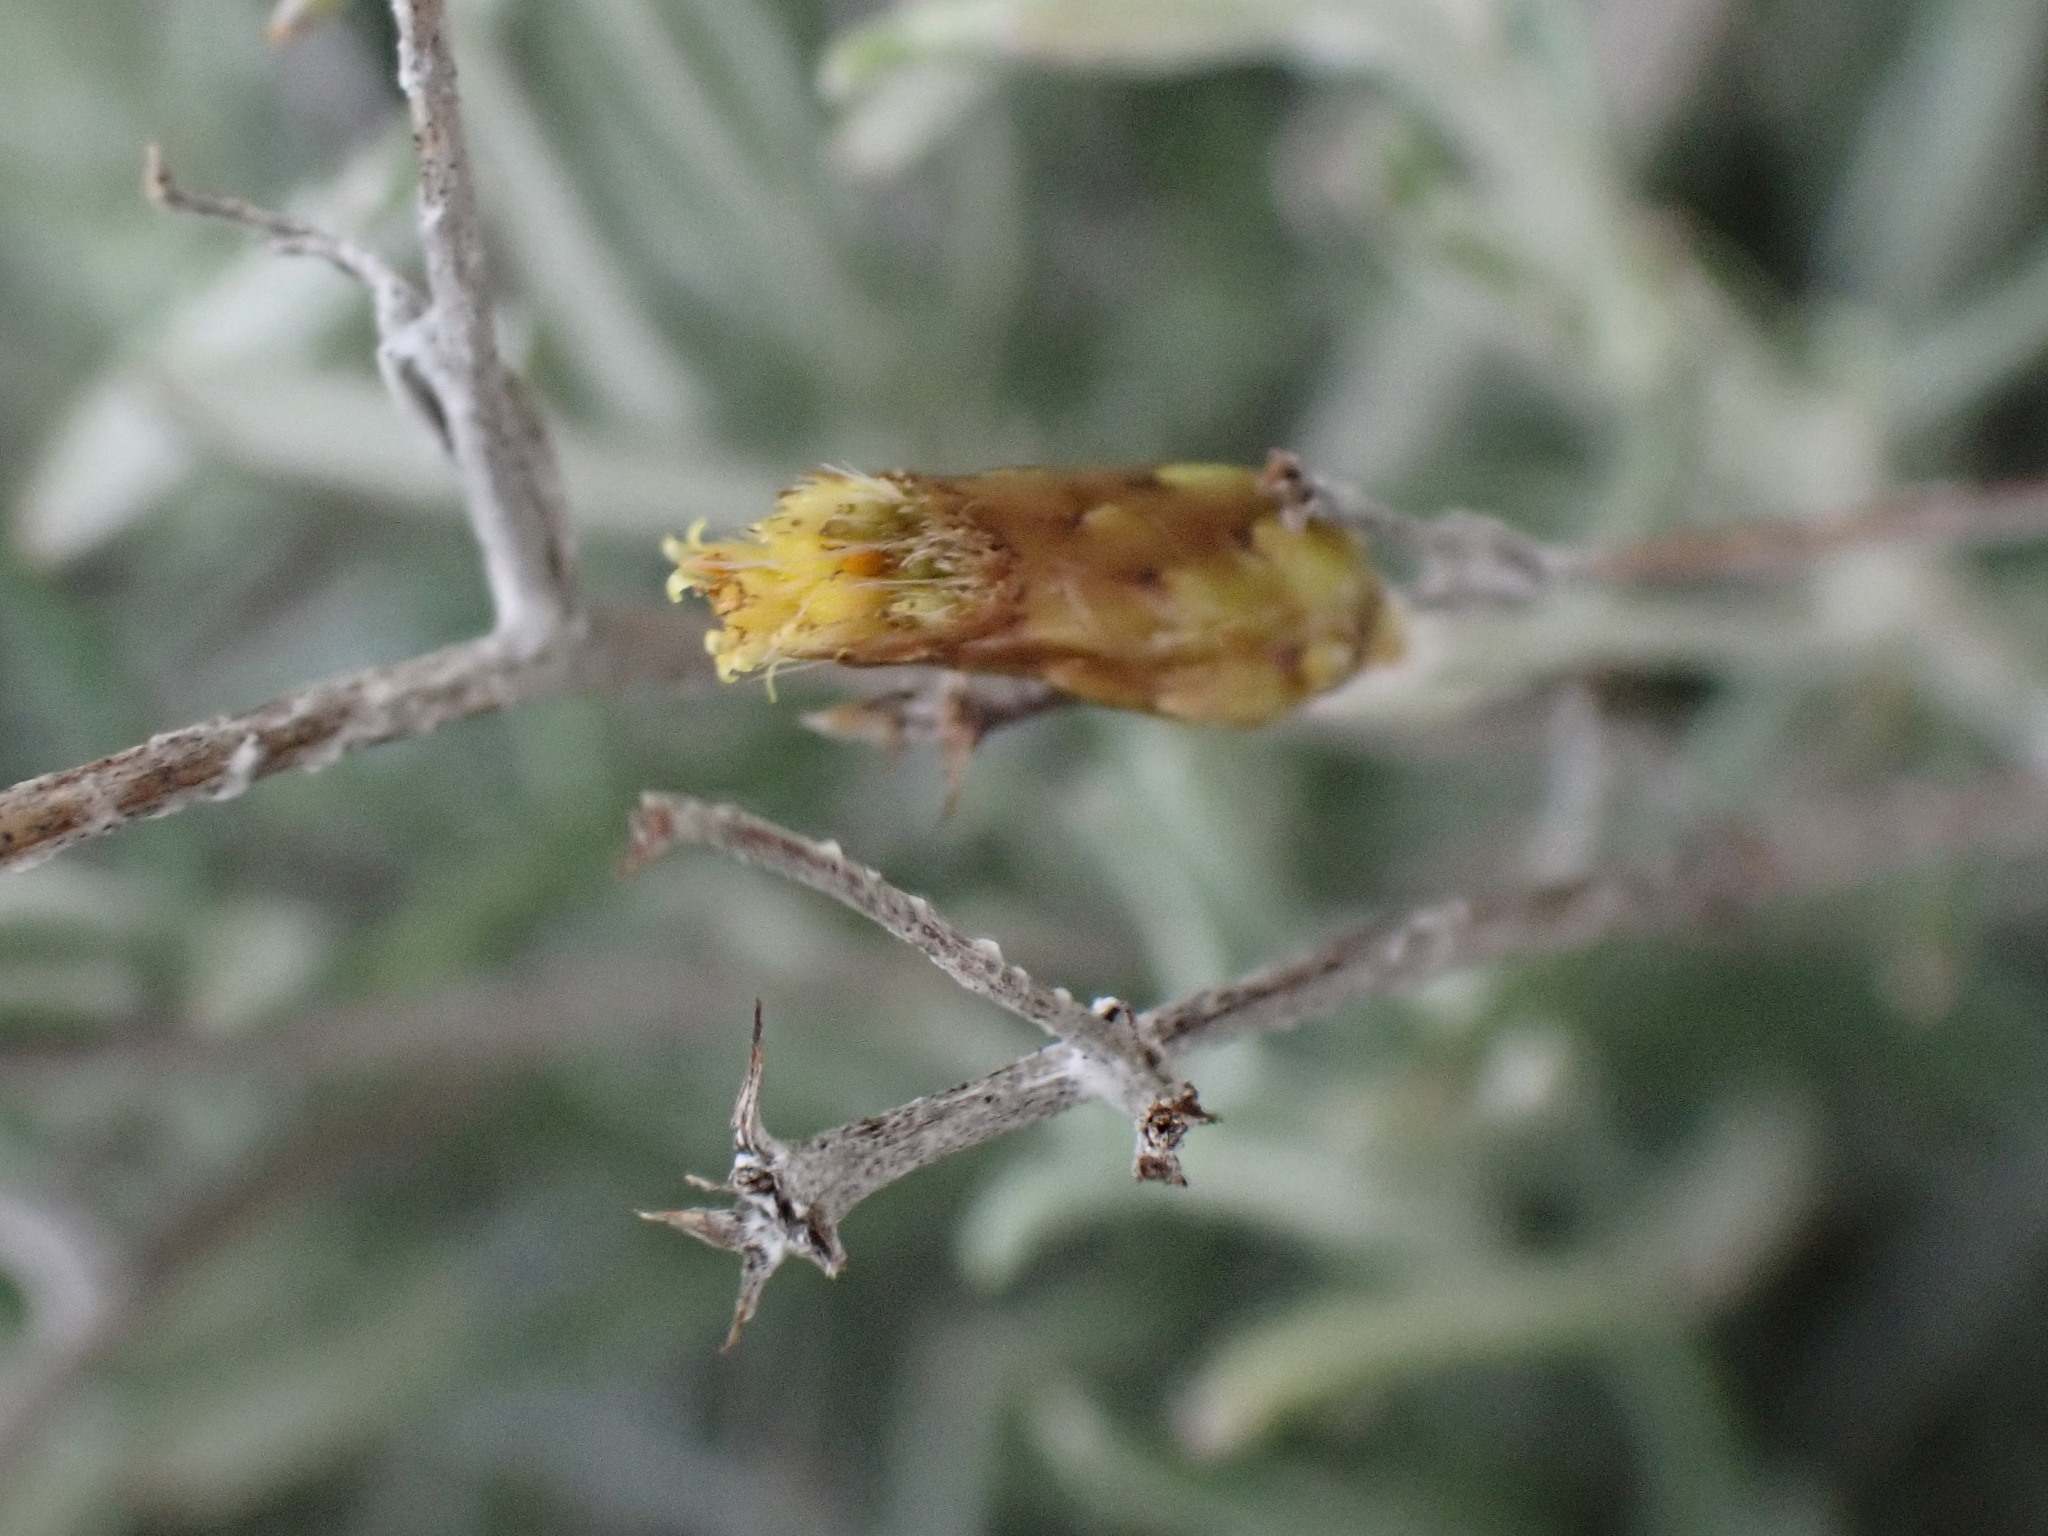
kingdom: Plantae
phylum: Tracheophyta
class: Magnoliopsida
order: Asterales
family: Asteraceae
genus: Phagnalon
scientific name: Phagnalon sordidum
